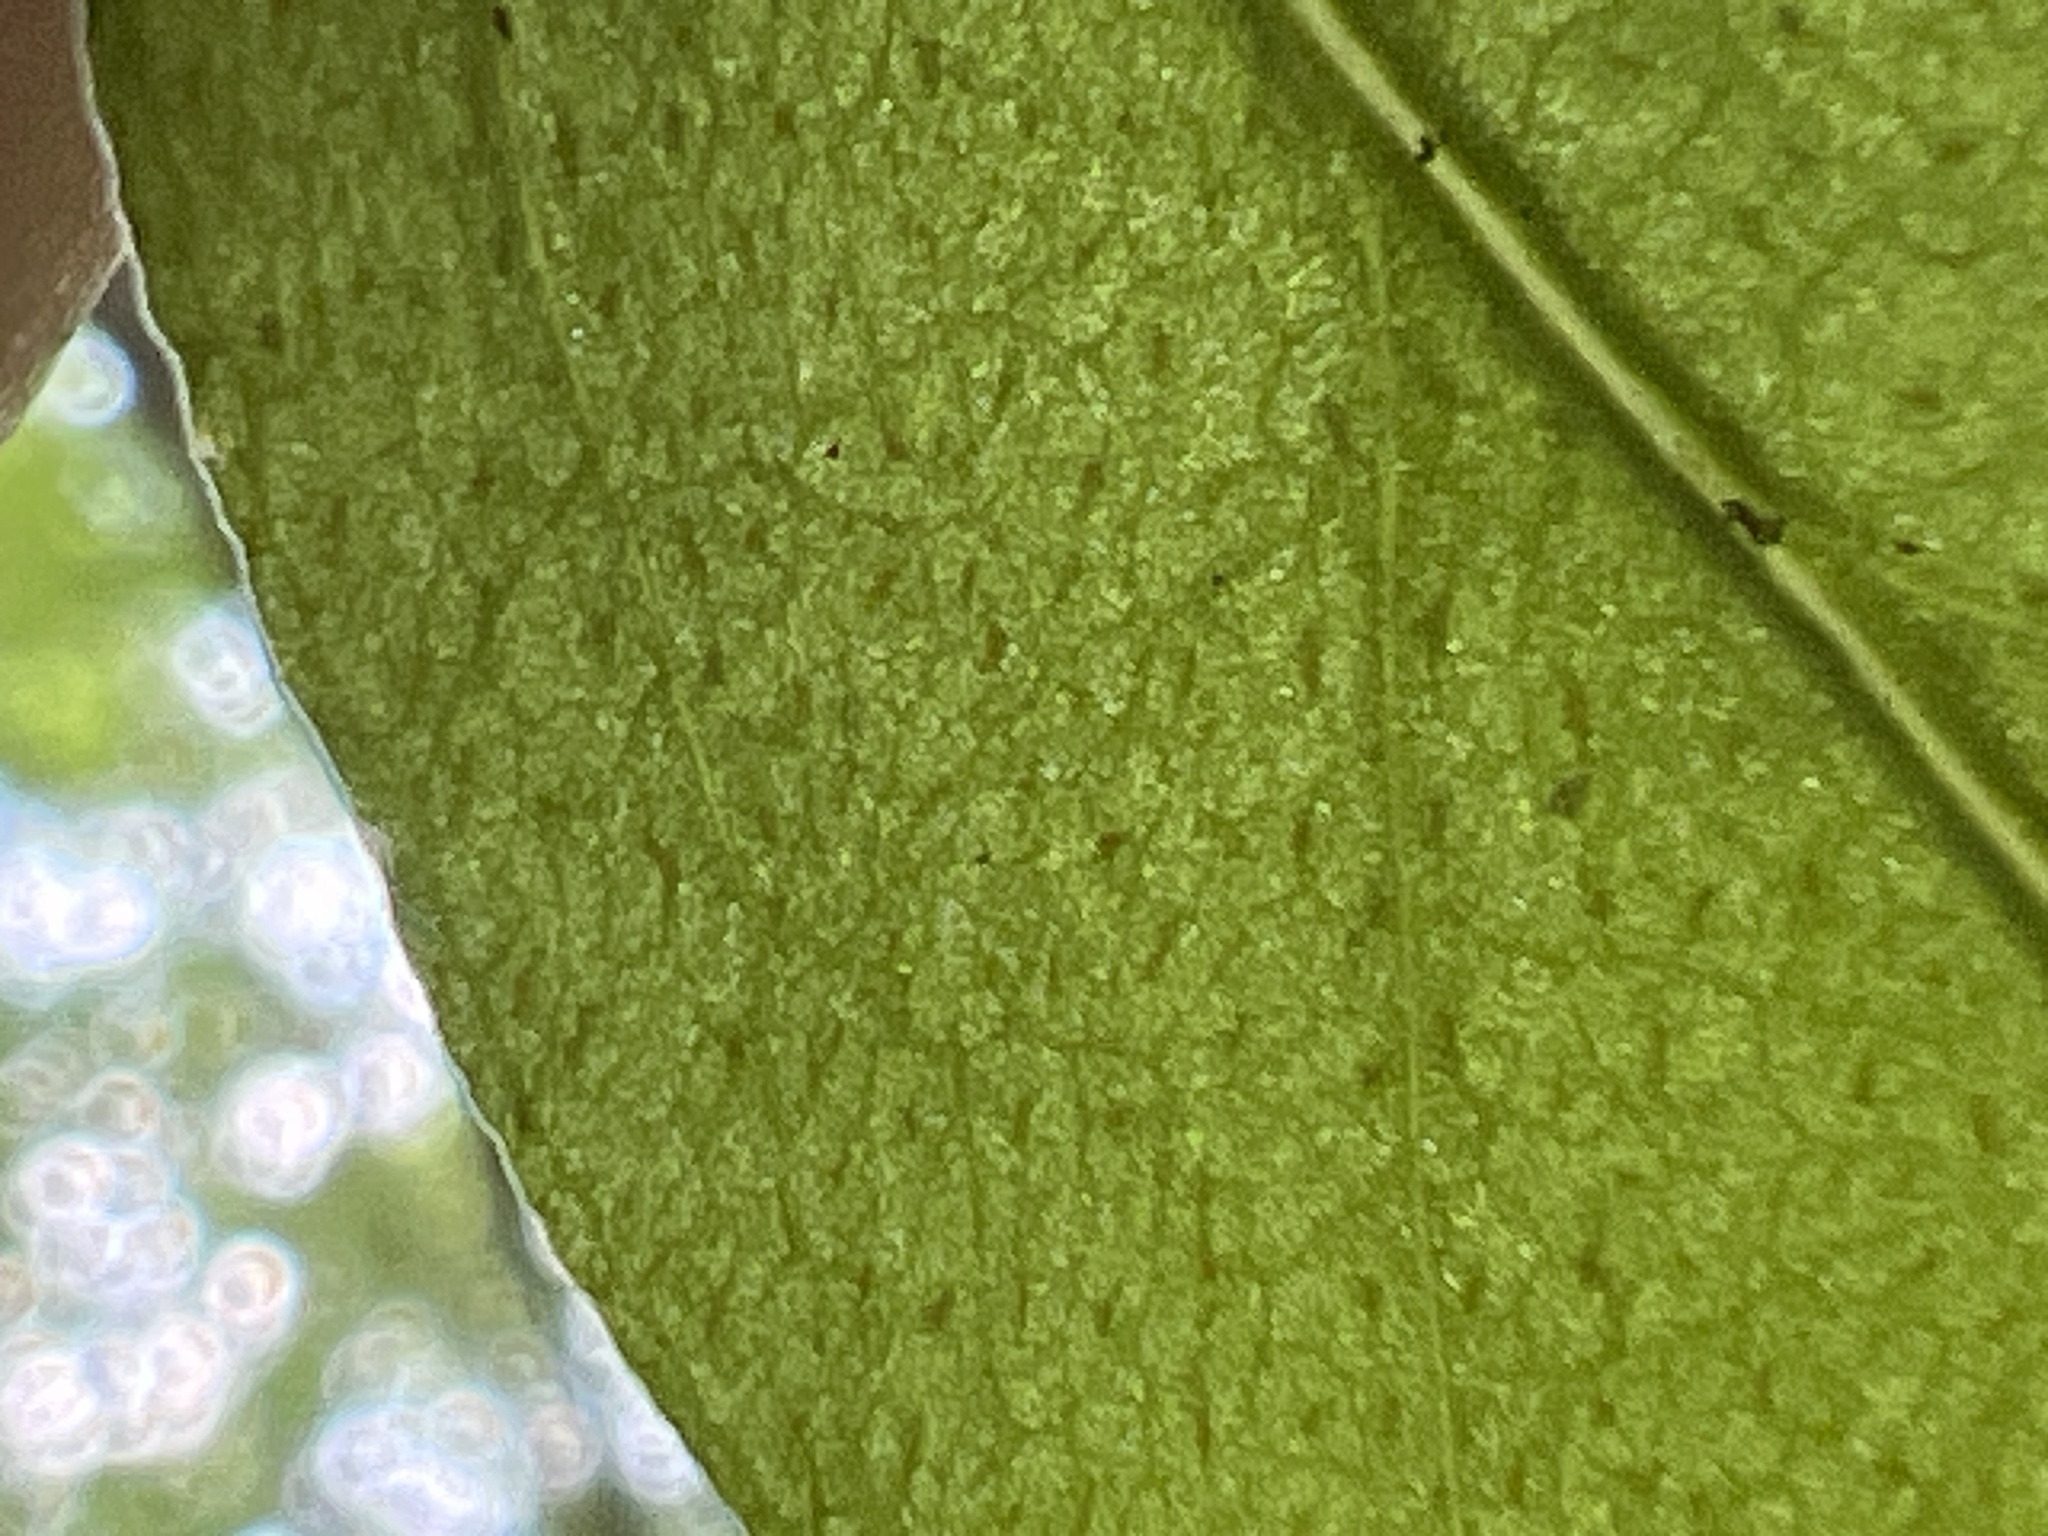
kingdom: Plantae
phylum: Tracheophyta
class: Magnoliopsida
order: Ericales
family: Primulaceae
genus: Lysimachia
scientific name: Lysimachia quadrifolia
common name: Whorled loosestrife
